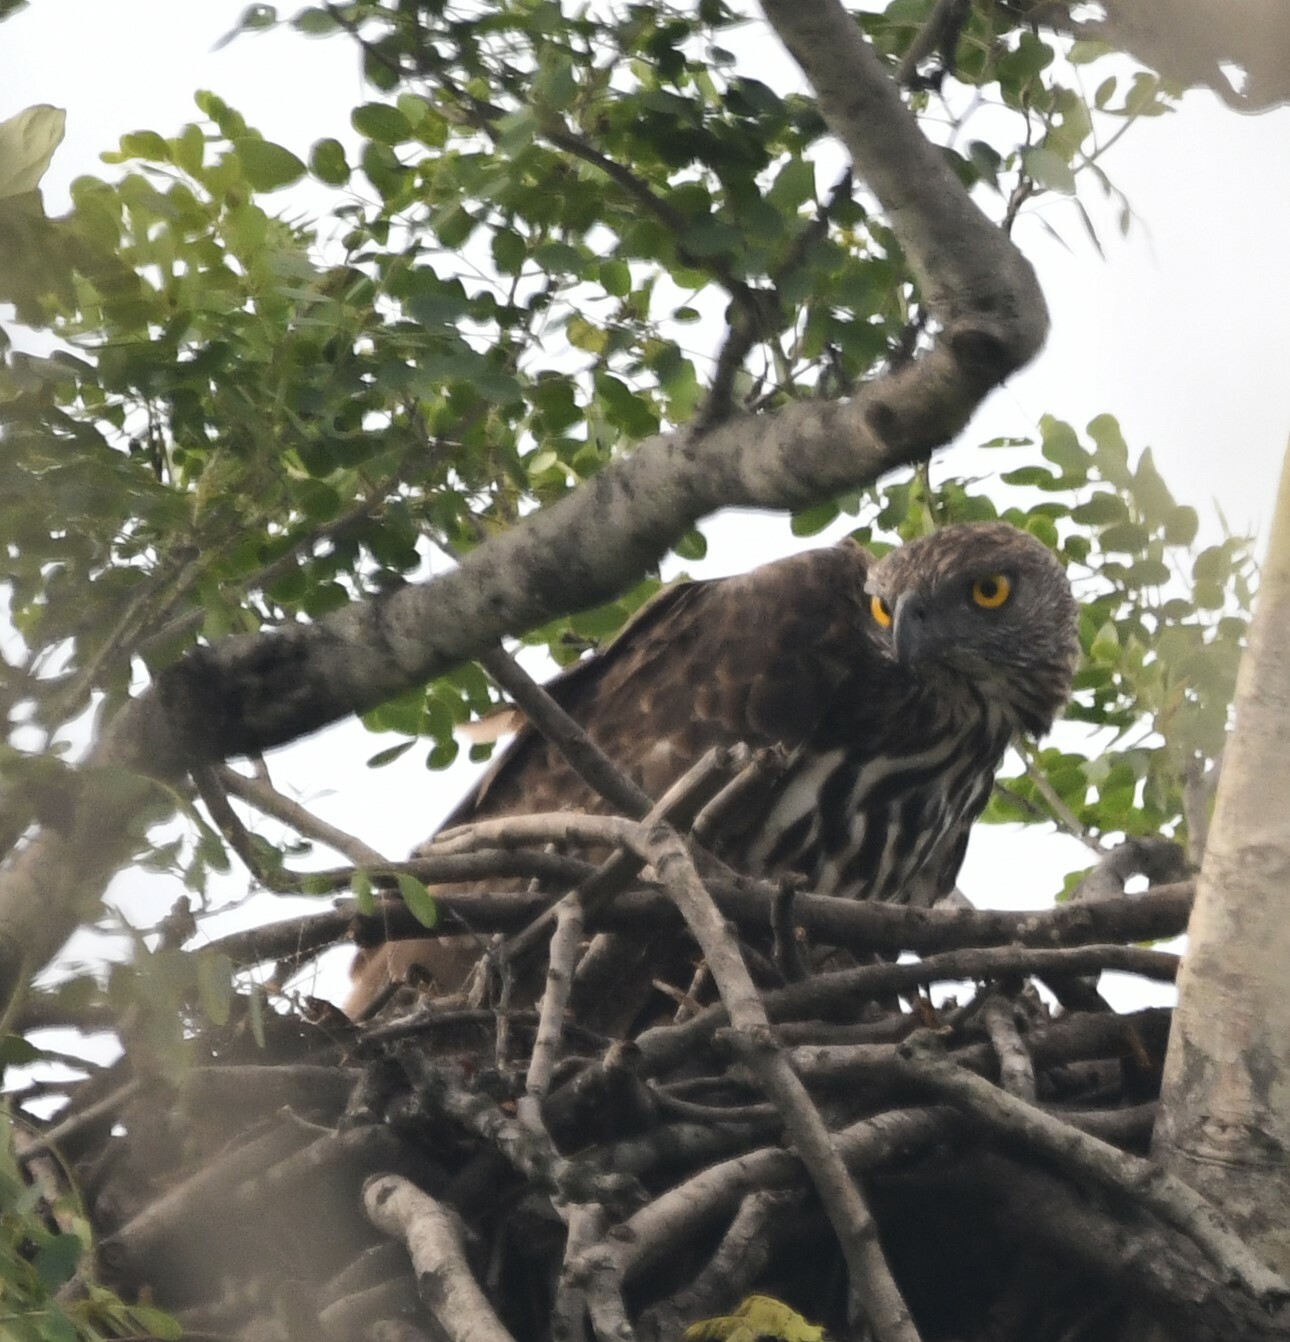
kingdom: Animalia
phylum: Chordata
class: Aves
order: Accipitriformes
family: Accipitridae
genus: Nisaetus
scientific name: Nisaetus cirrhatus
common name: Changeable hawk-eagle
